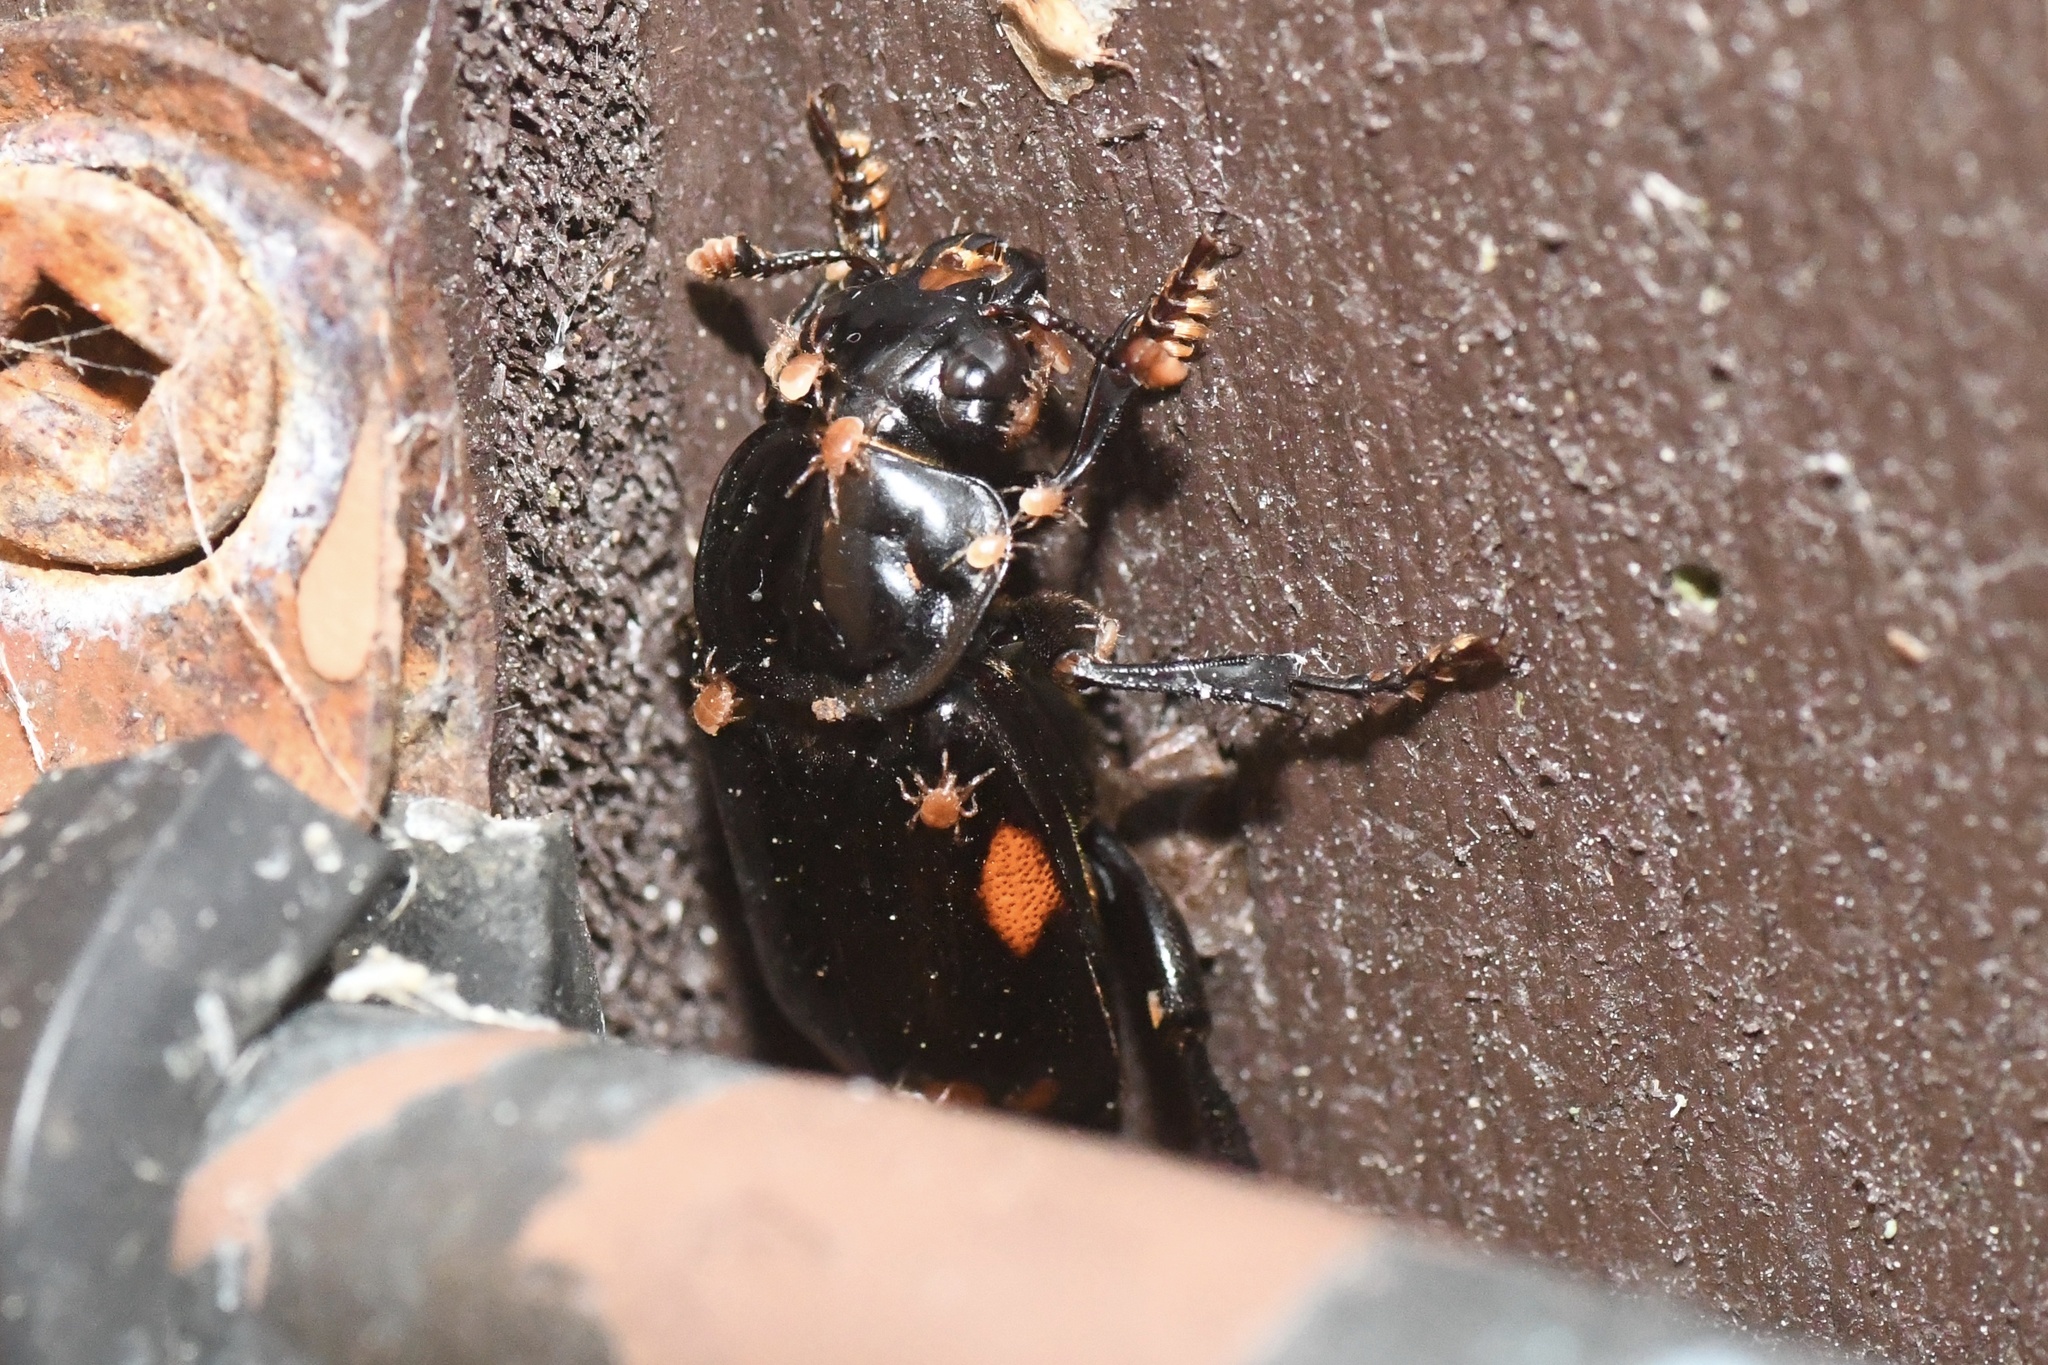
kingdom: Animalia
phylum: Arthropoda
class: Insecta
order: Coleoptera
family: Staphylinidae
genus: Nicrophorus
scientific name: Nicrophorus pustulatus
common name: Pustulated carrion beetle
